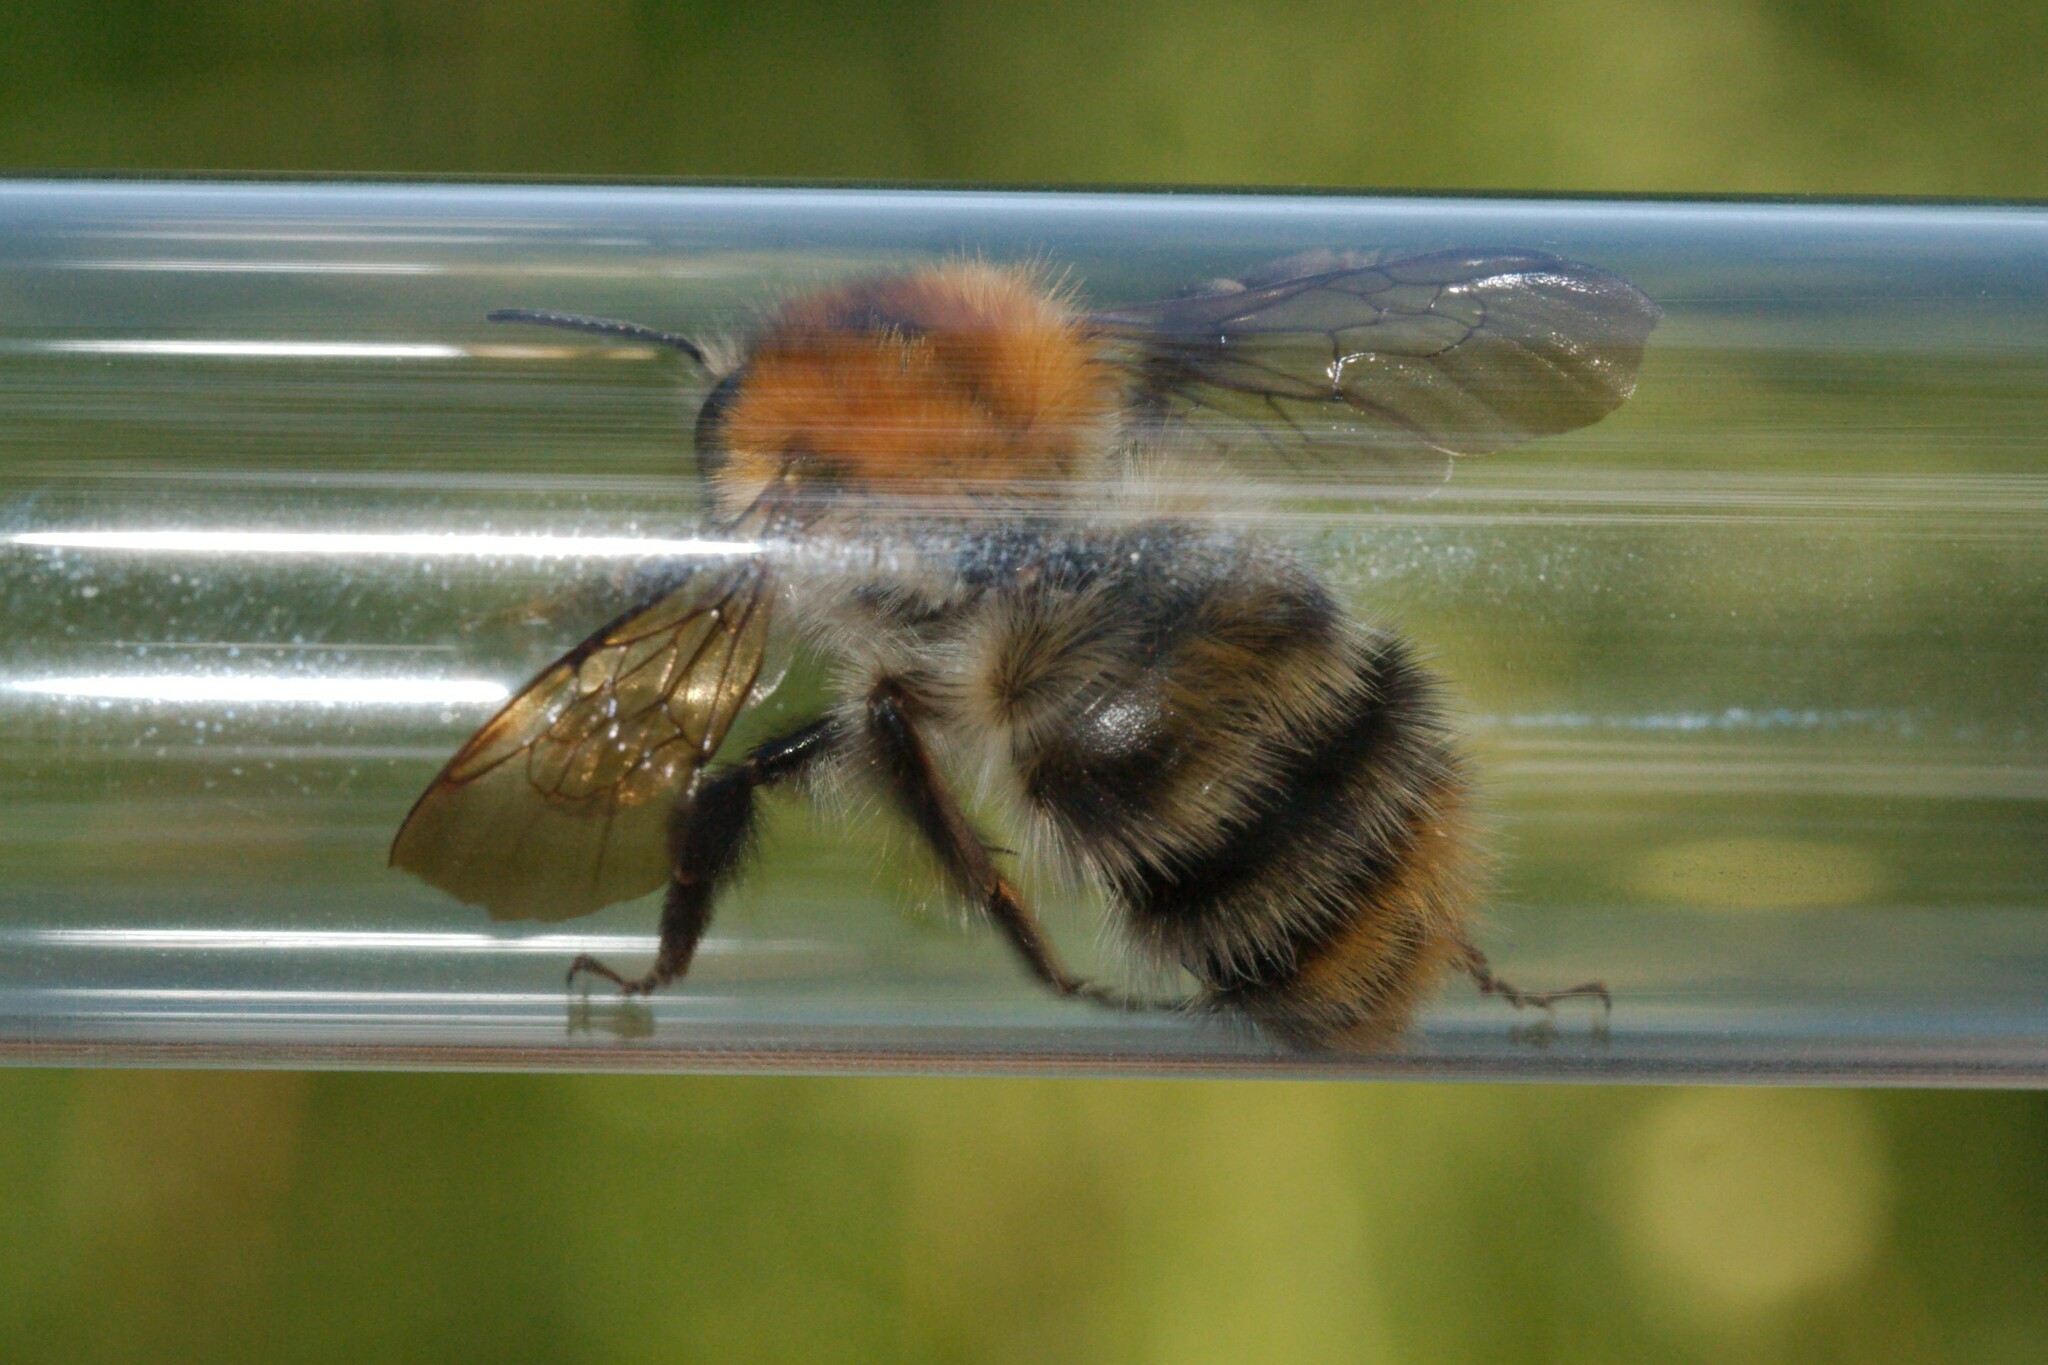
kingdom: Animalia
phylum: Arthropoda
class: Insecta
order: Hymenoptera
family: Apidae
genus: Bombus
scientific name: Bombus pascuorum
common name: Common carder bee
